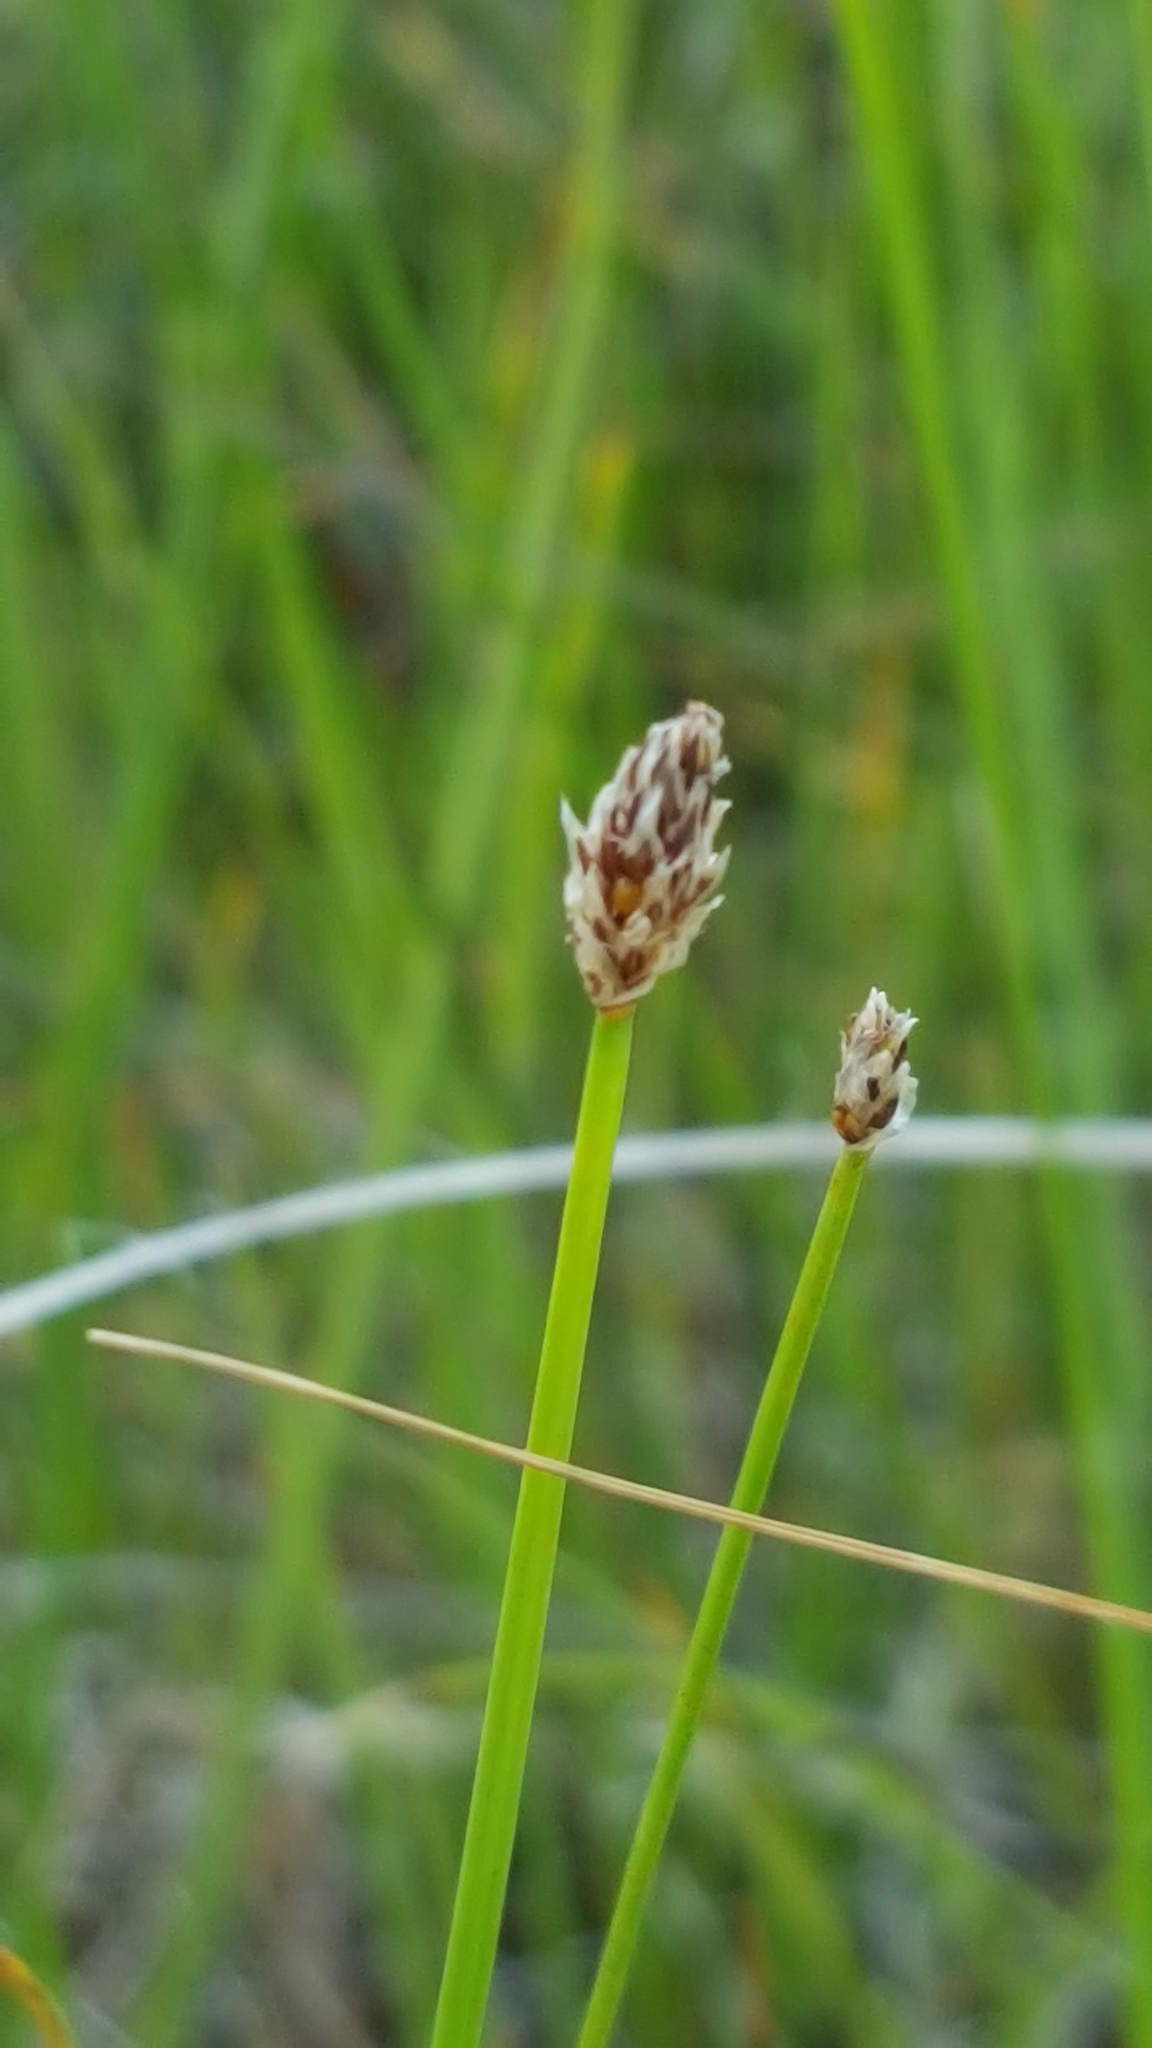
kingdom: Plantae
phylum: Tracheophyta
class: Liliopsida
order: Poales
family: Cyperaceae
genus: Eleocharis
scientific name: Eleocharis compressa
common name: Flat-stem spike-rush
